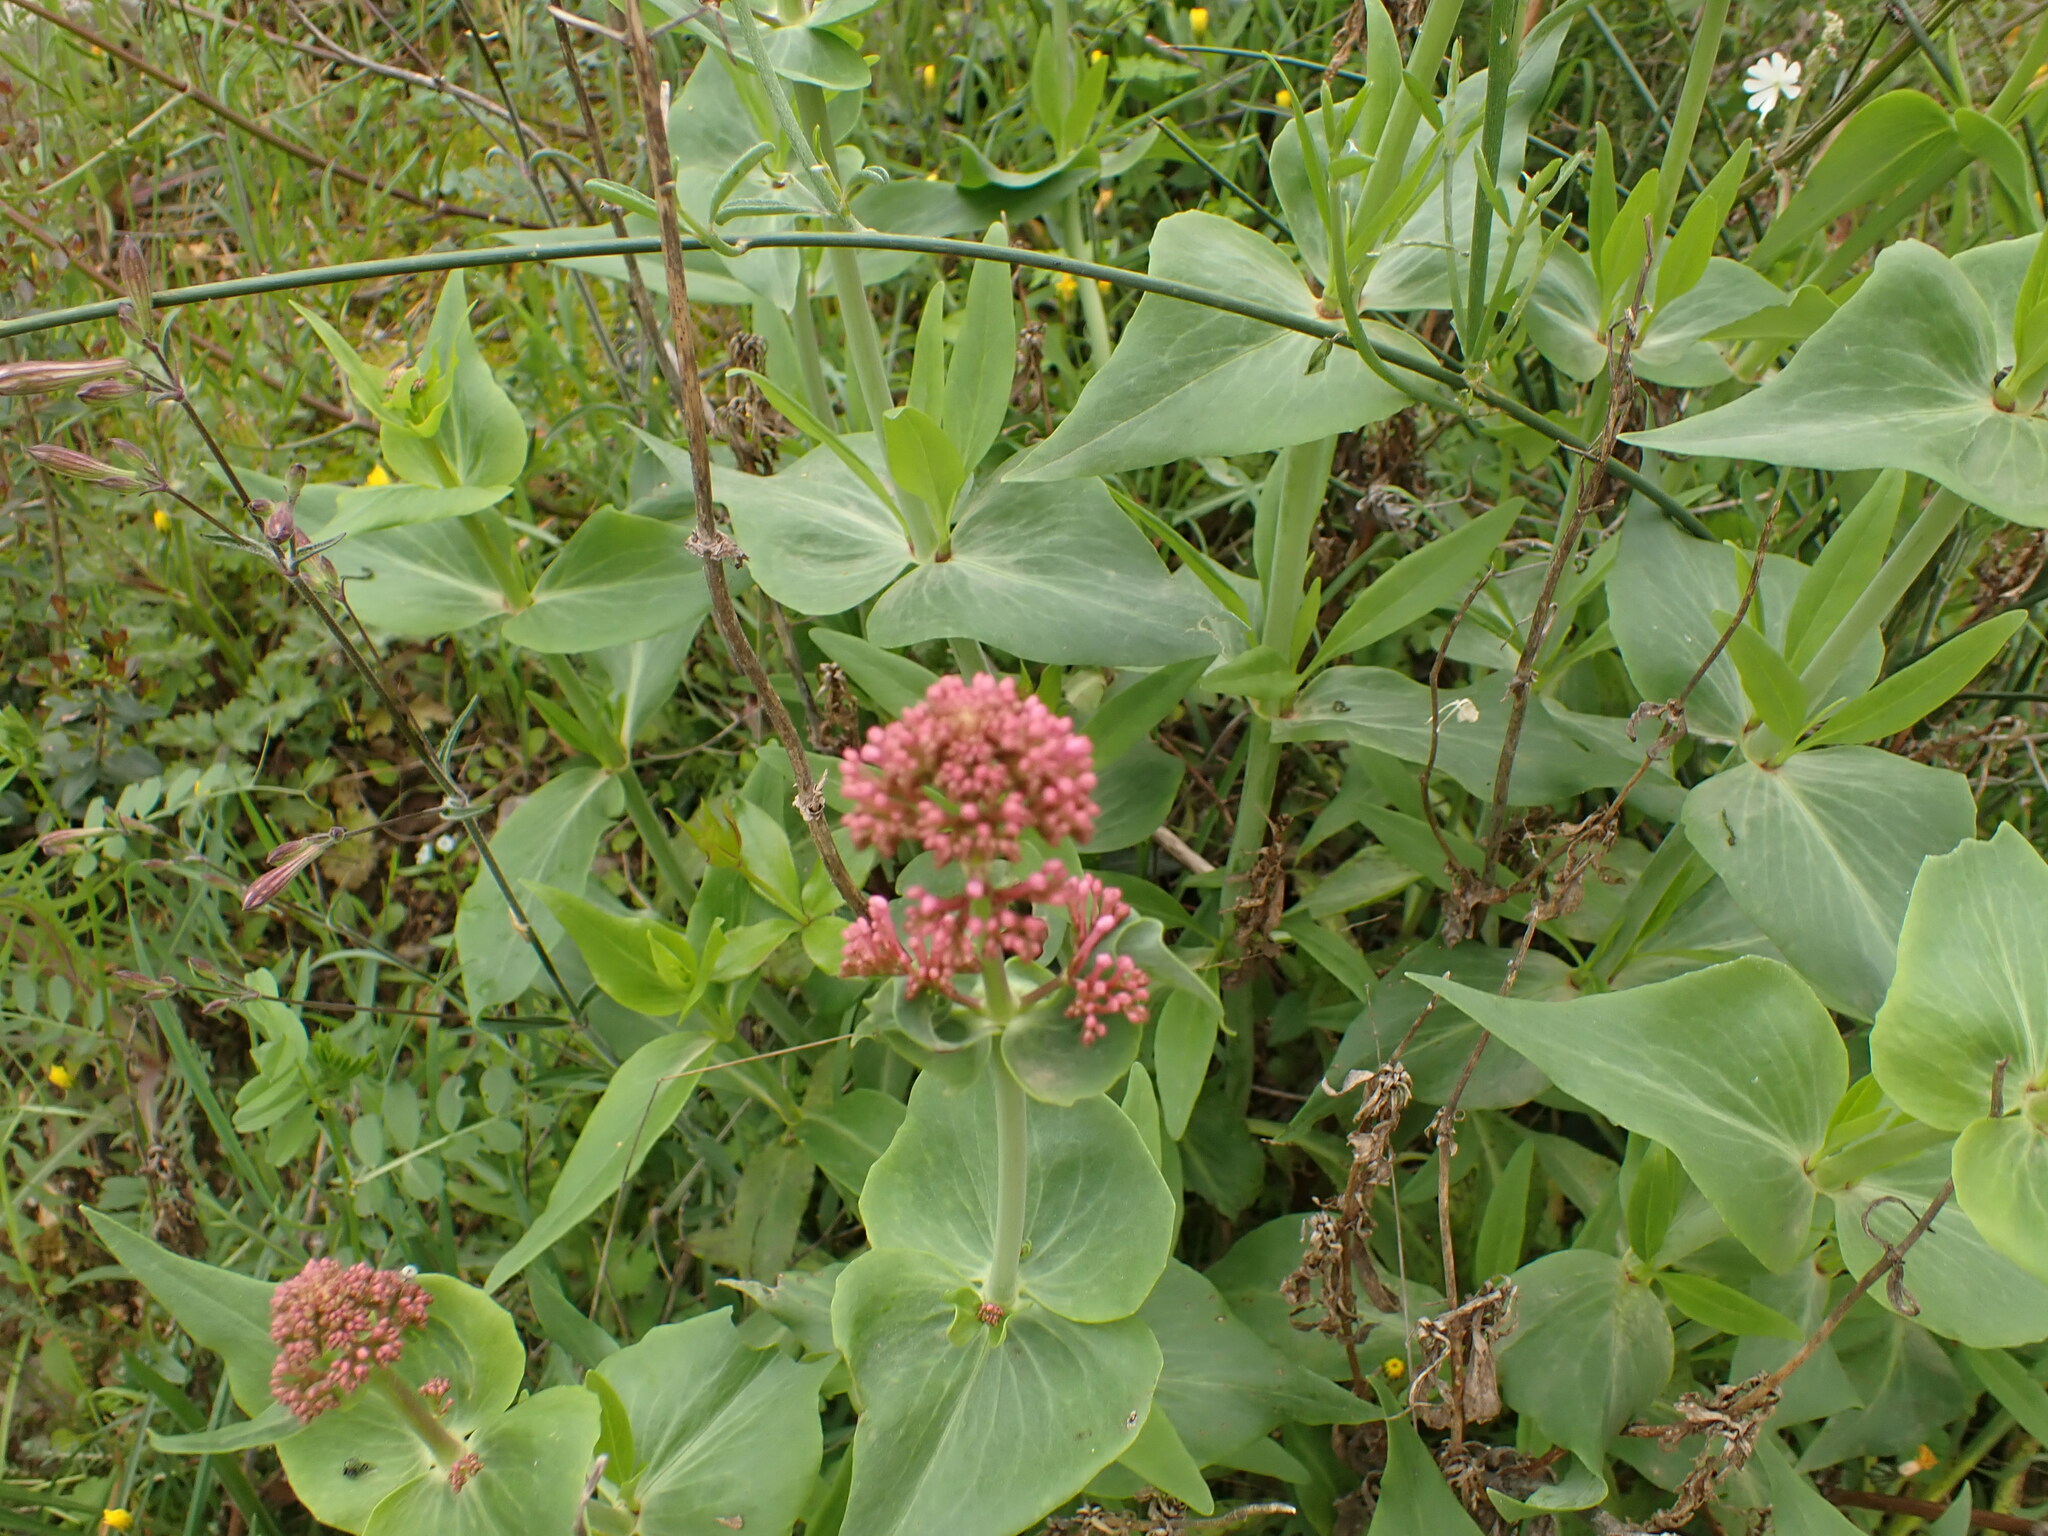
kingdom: Plantae
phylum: Tracheophyta
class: Magnoliopsida
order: Dipsacales
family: Caprifoliaceae
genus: Centranthus
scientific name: Centranthus ruber
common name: Red valerian
